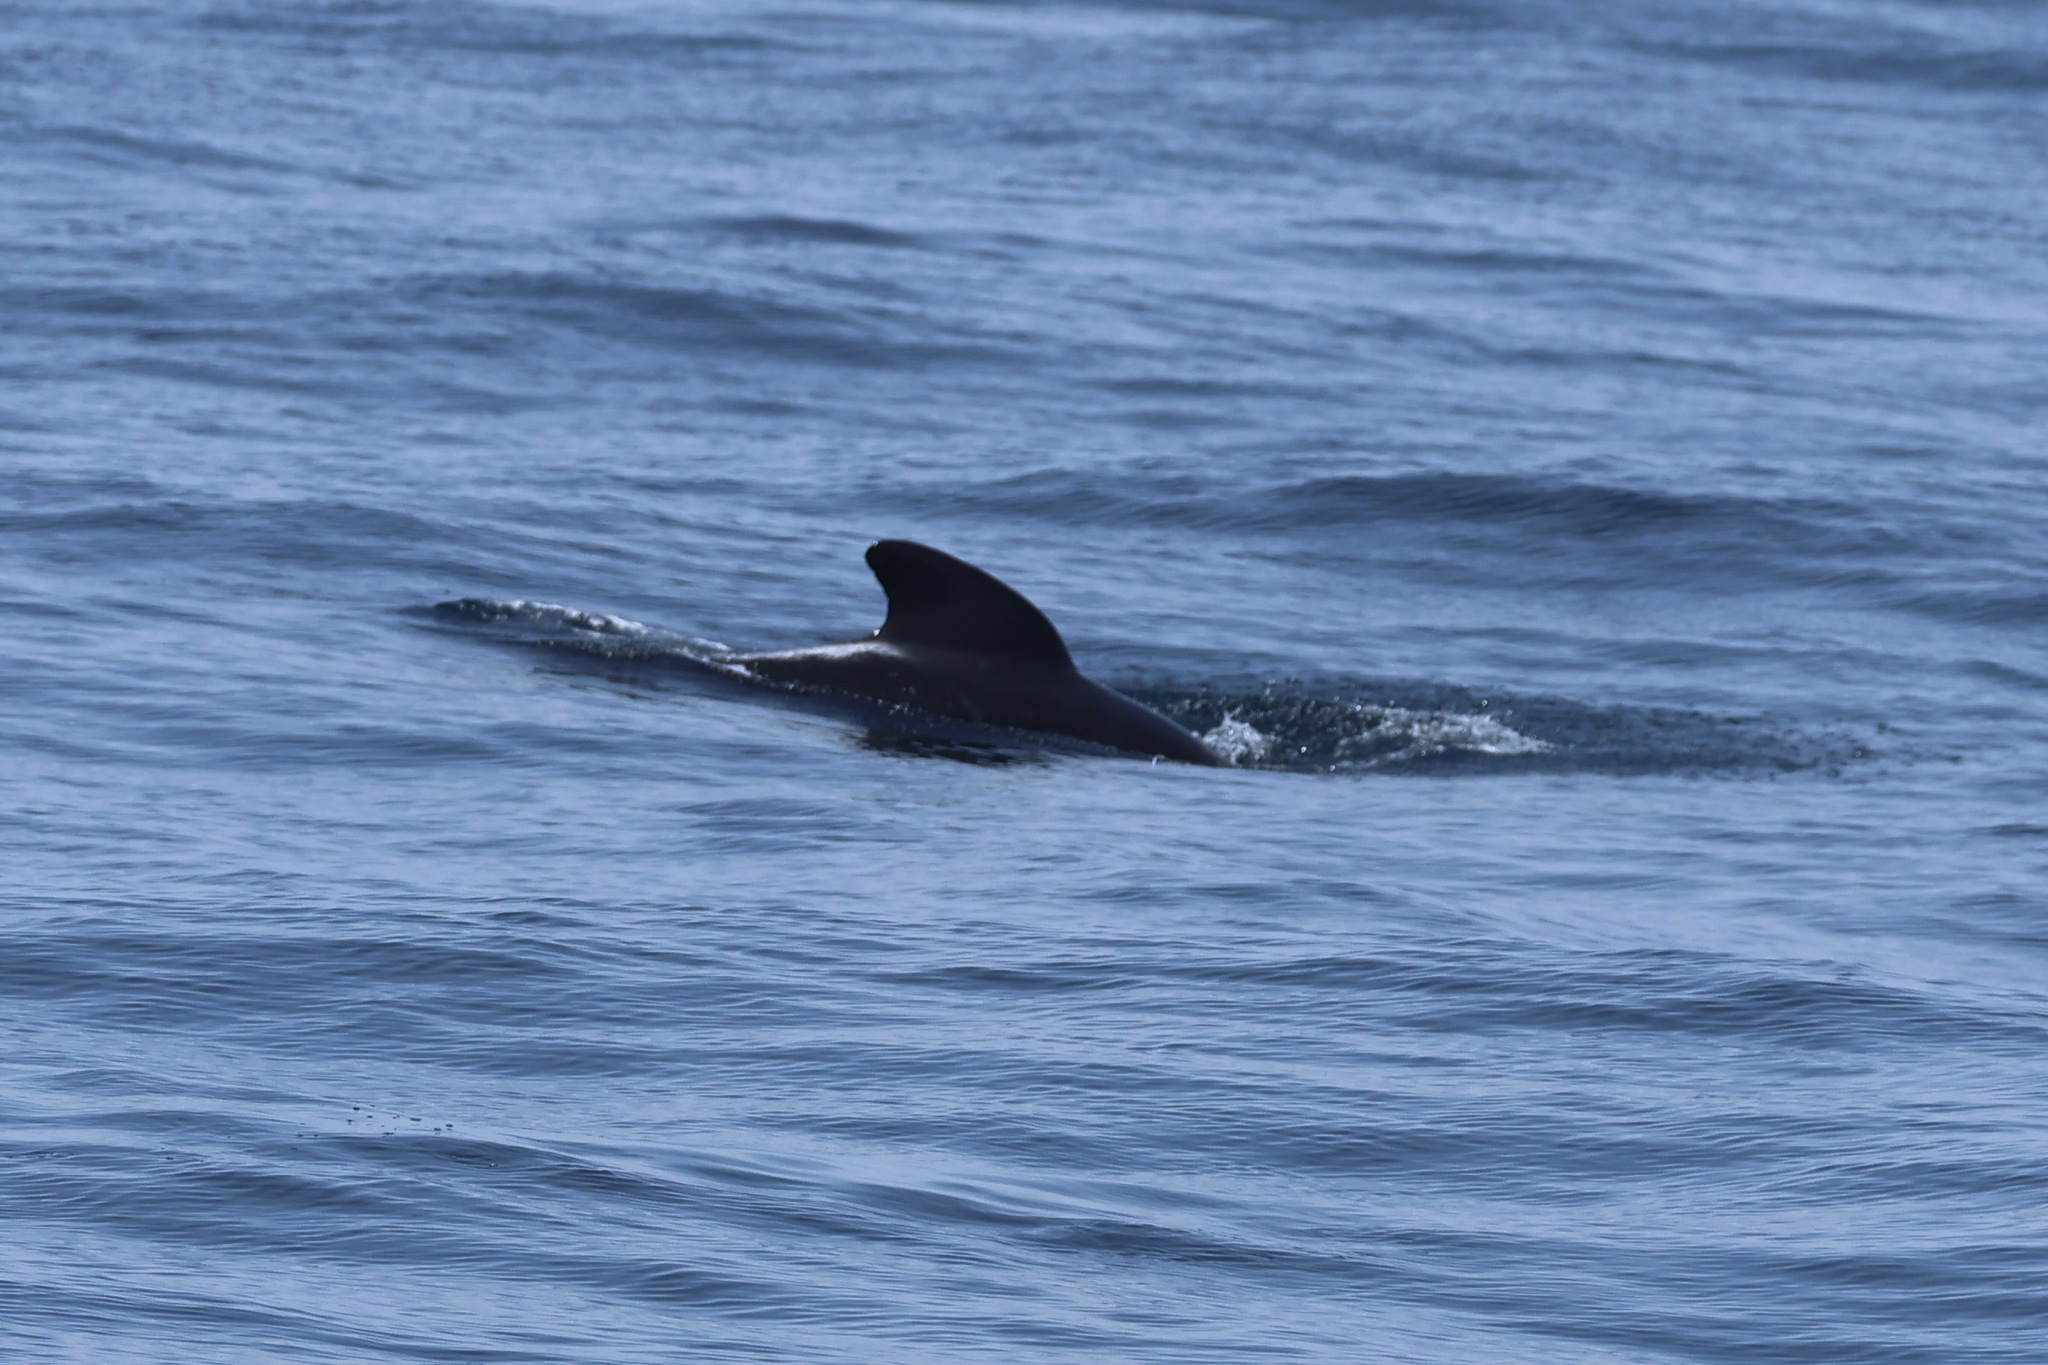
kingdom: Animalia
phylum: Chordata
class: Mammalia
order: Cetacea
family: Delphinidae
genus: Globicephala
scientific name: Globicephala melas
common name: Long-finned pilot whale
